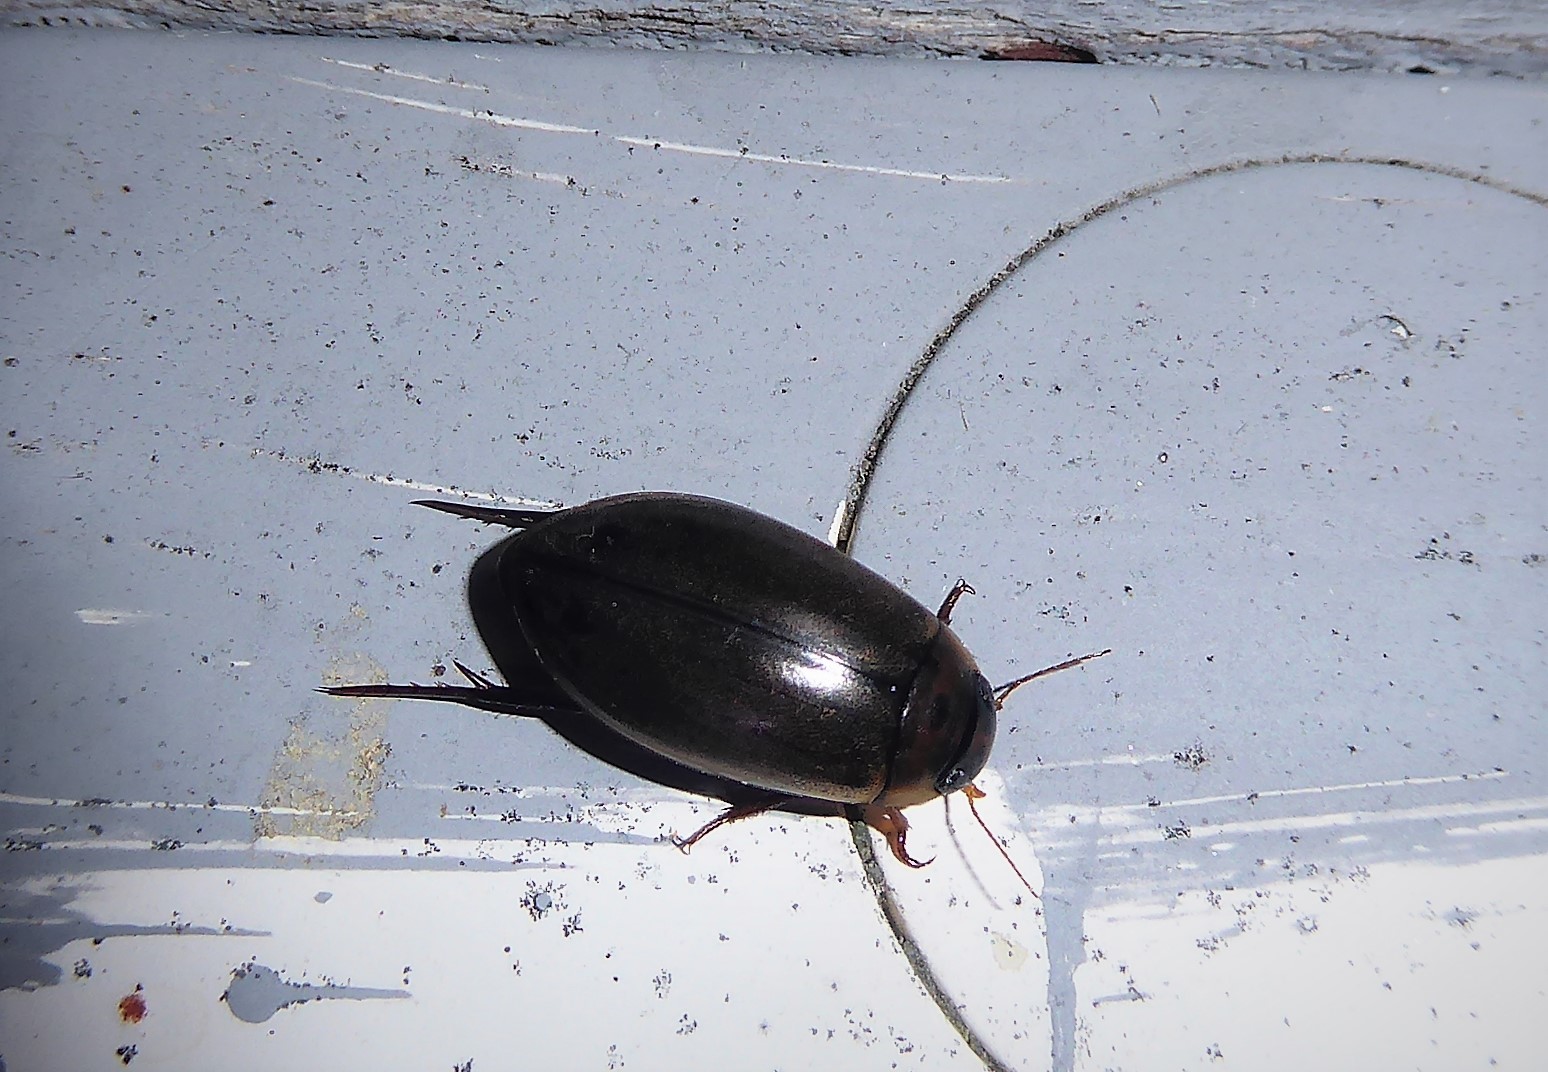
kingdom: Animalia
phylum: Arthropoda
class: Insecta
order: Coleoptera
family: Dytiscidae
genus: Rhantus
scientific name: Rhantus suturalis
